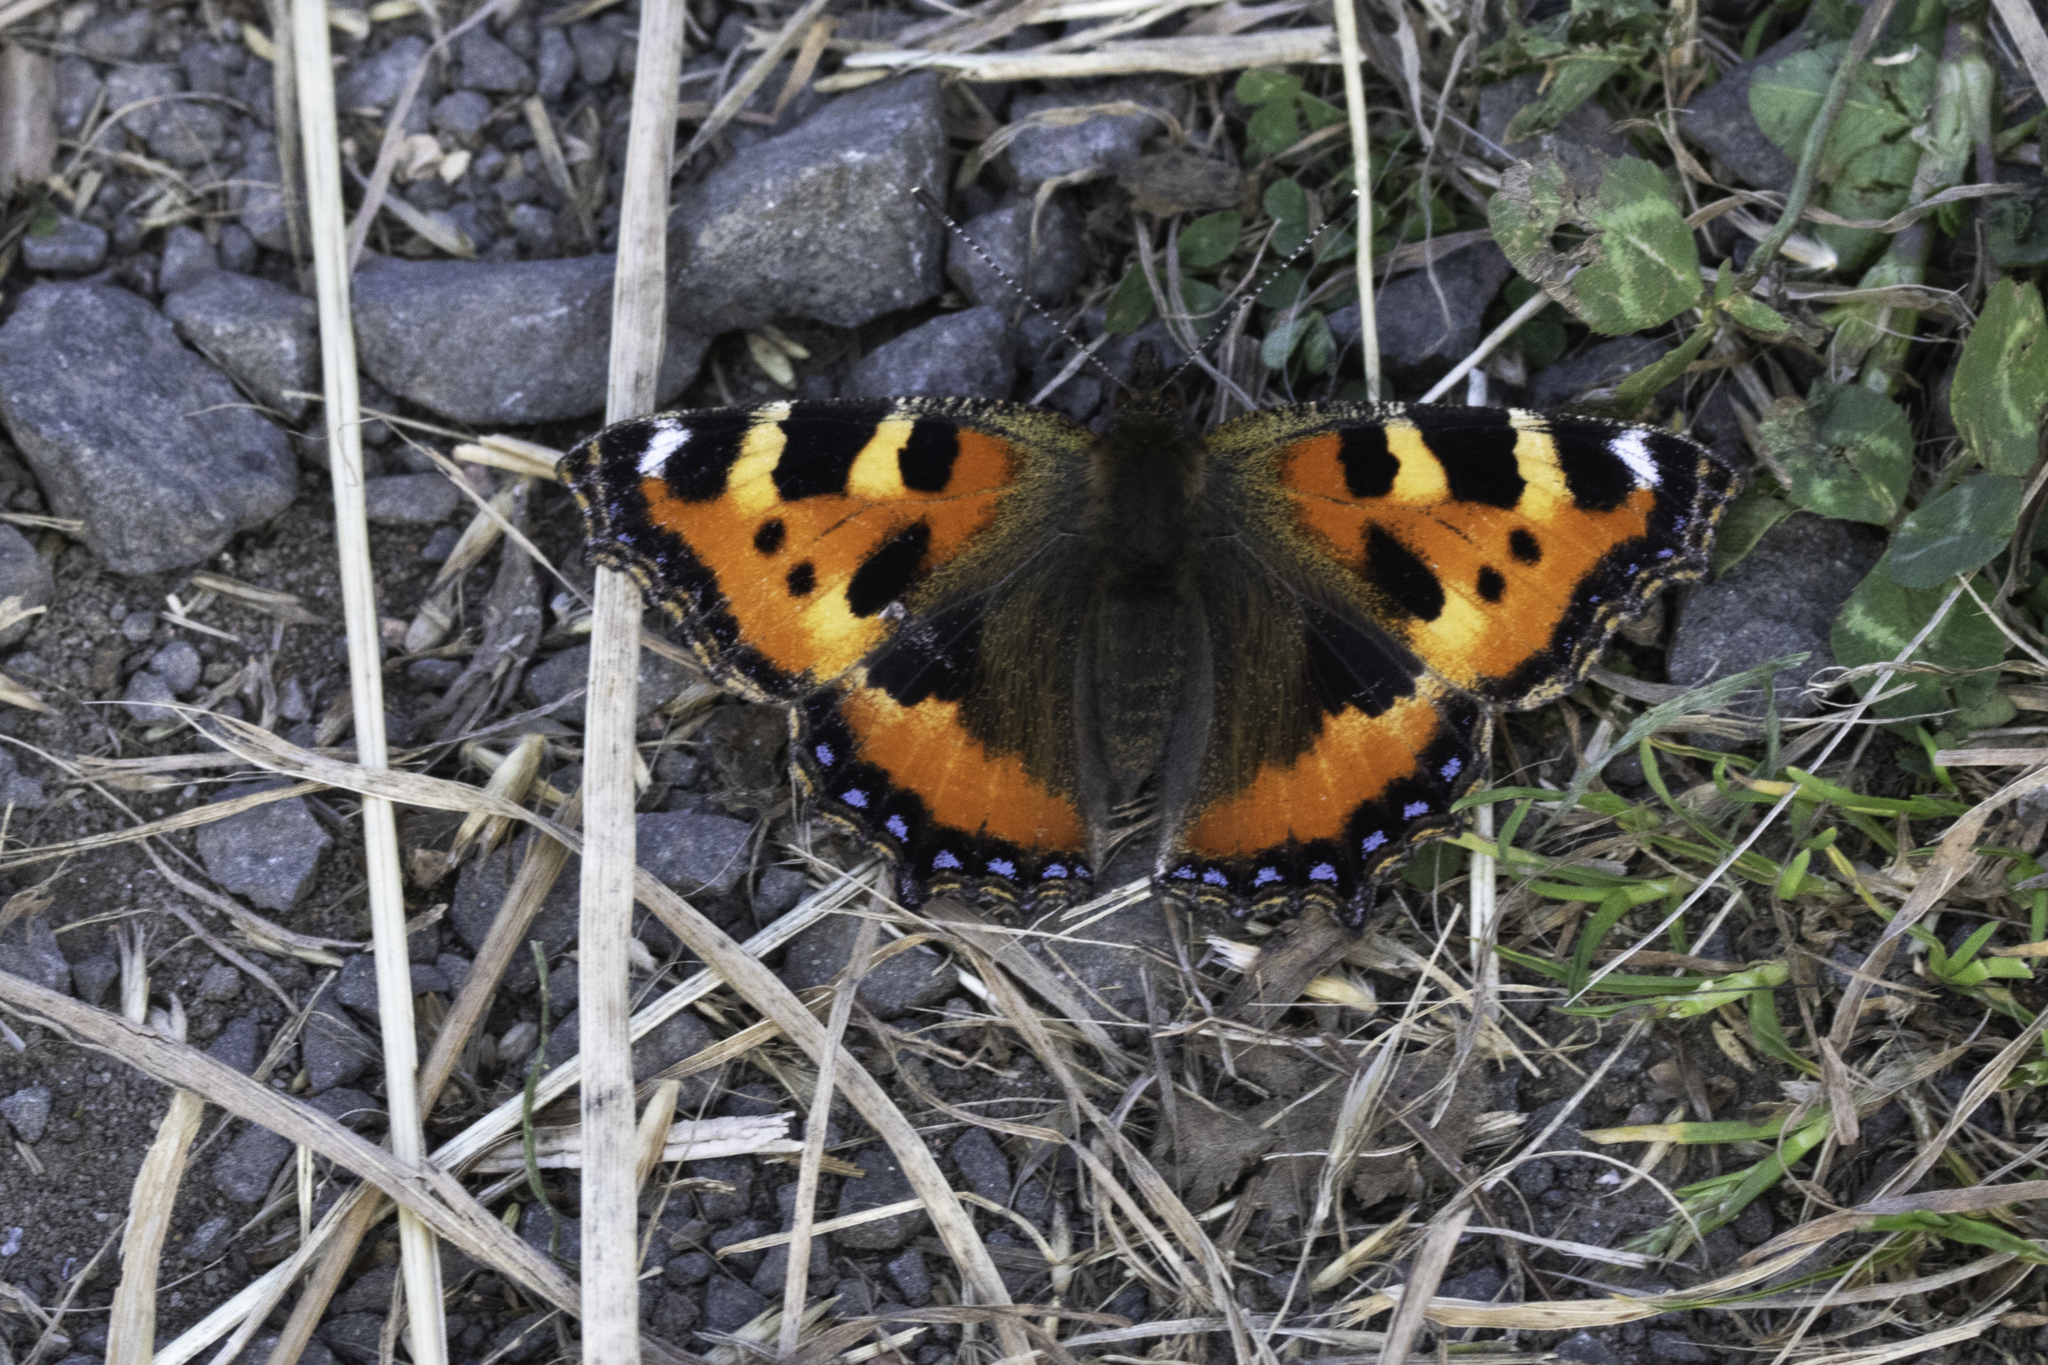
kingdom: Animalia
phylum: Arthropoda
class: Insecta
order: Lepidoptera
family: Nymphalidae
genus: Aglais
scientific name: Aglais urticae
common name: Small tortoiseshell
